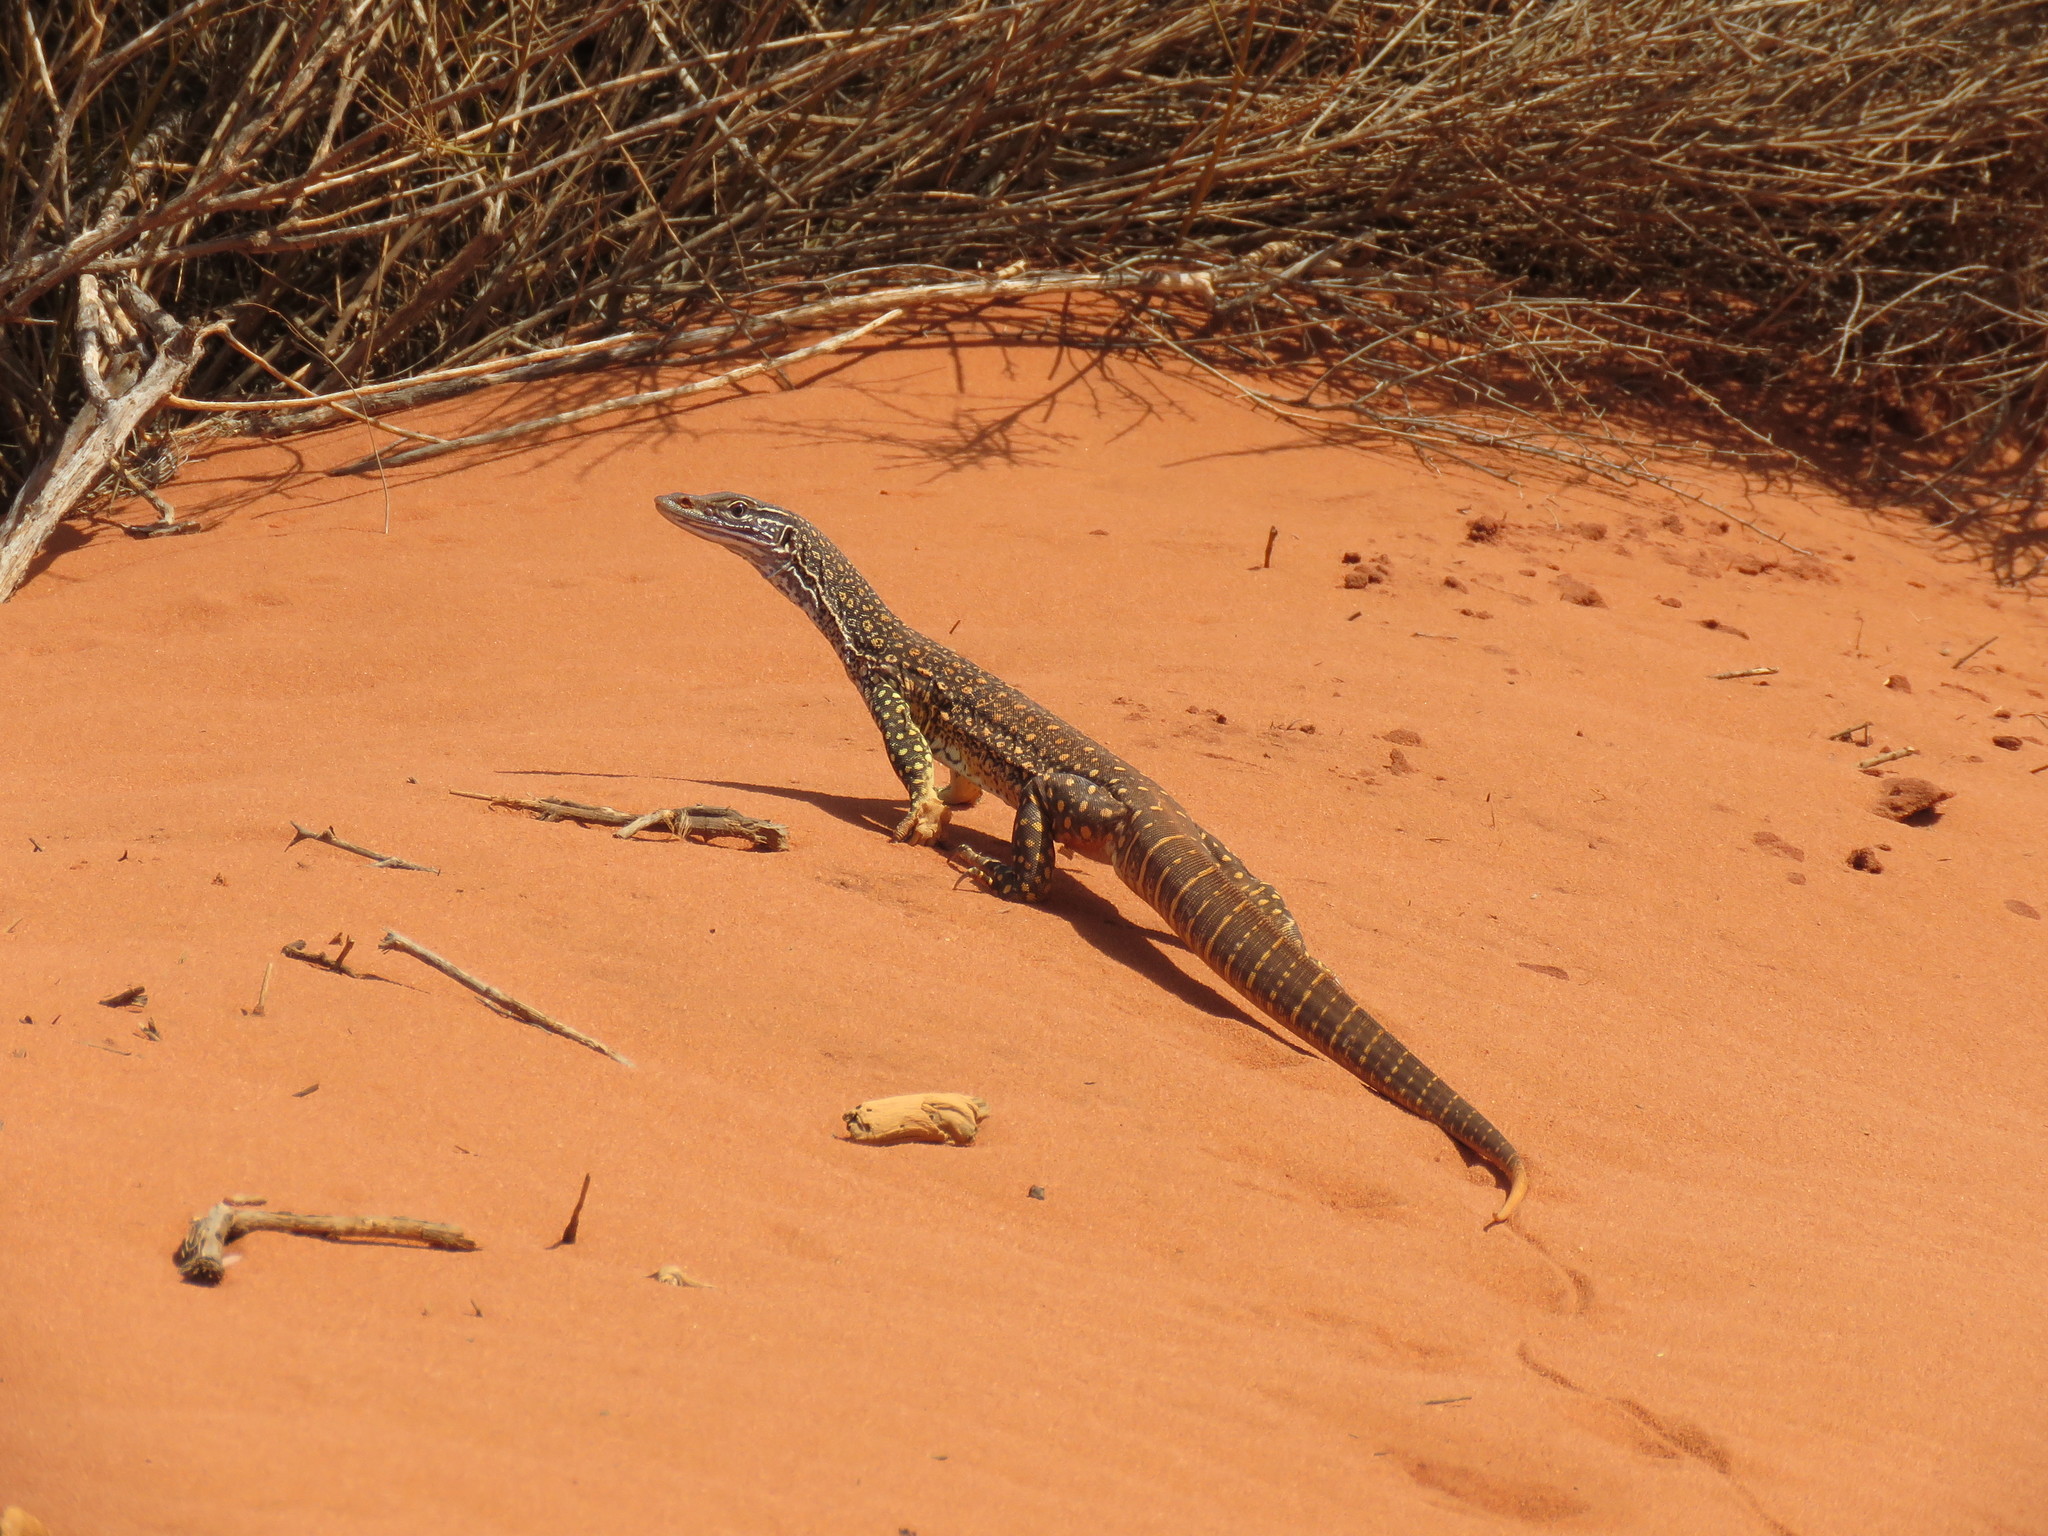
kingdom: Animalia
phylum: Chordata
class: Squamata
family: Varanidae
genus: Varanus
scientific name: Varanus gouldii
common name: Gould's goanna
